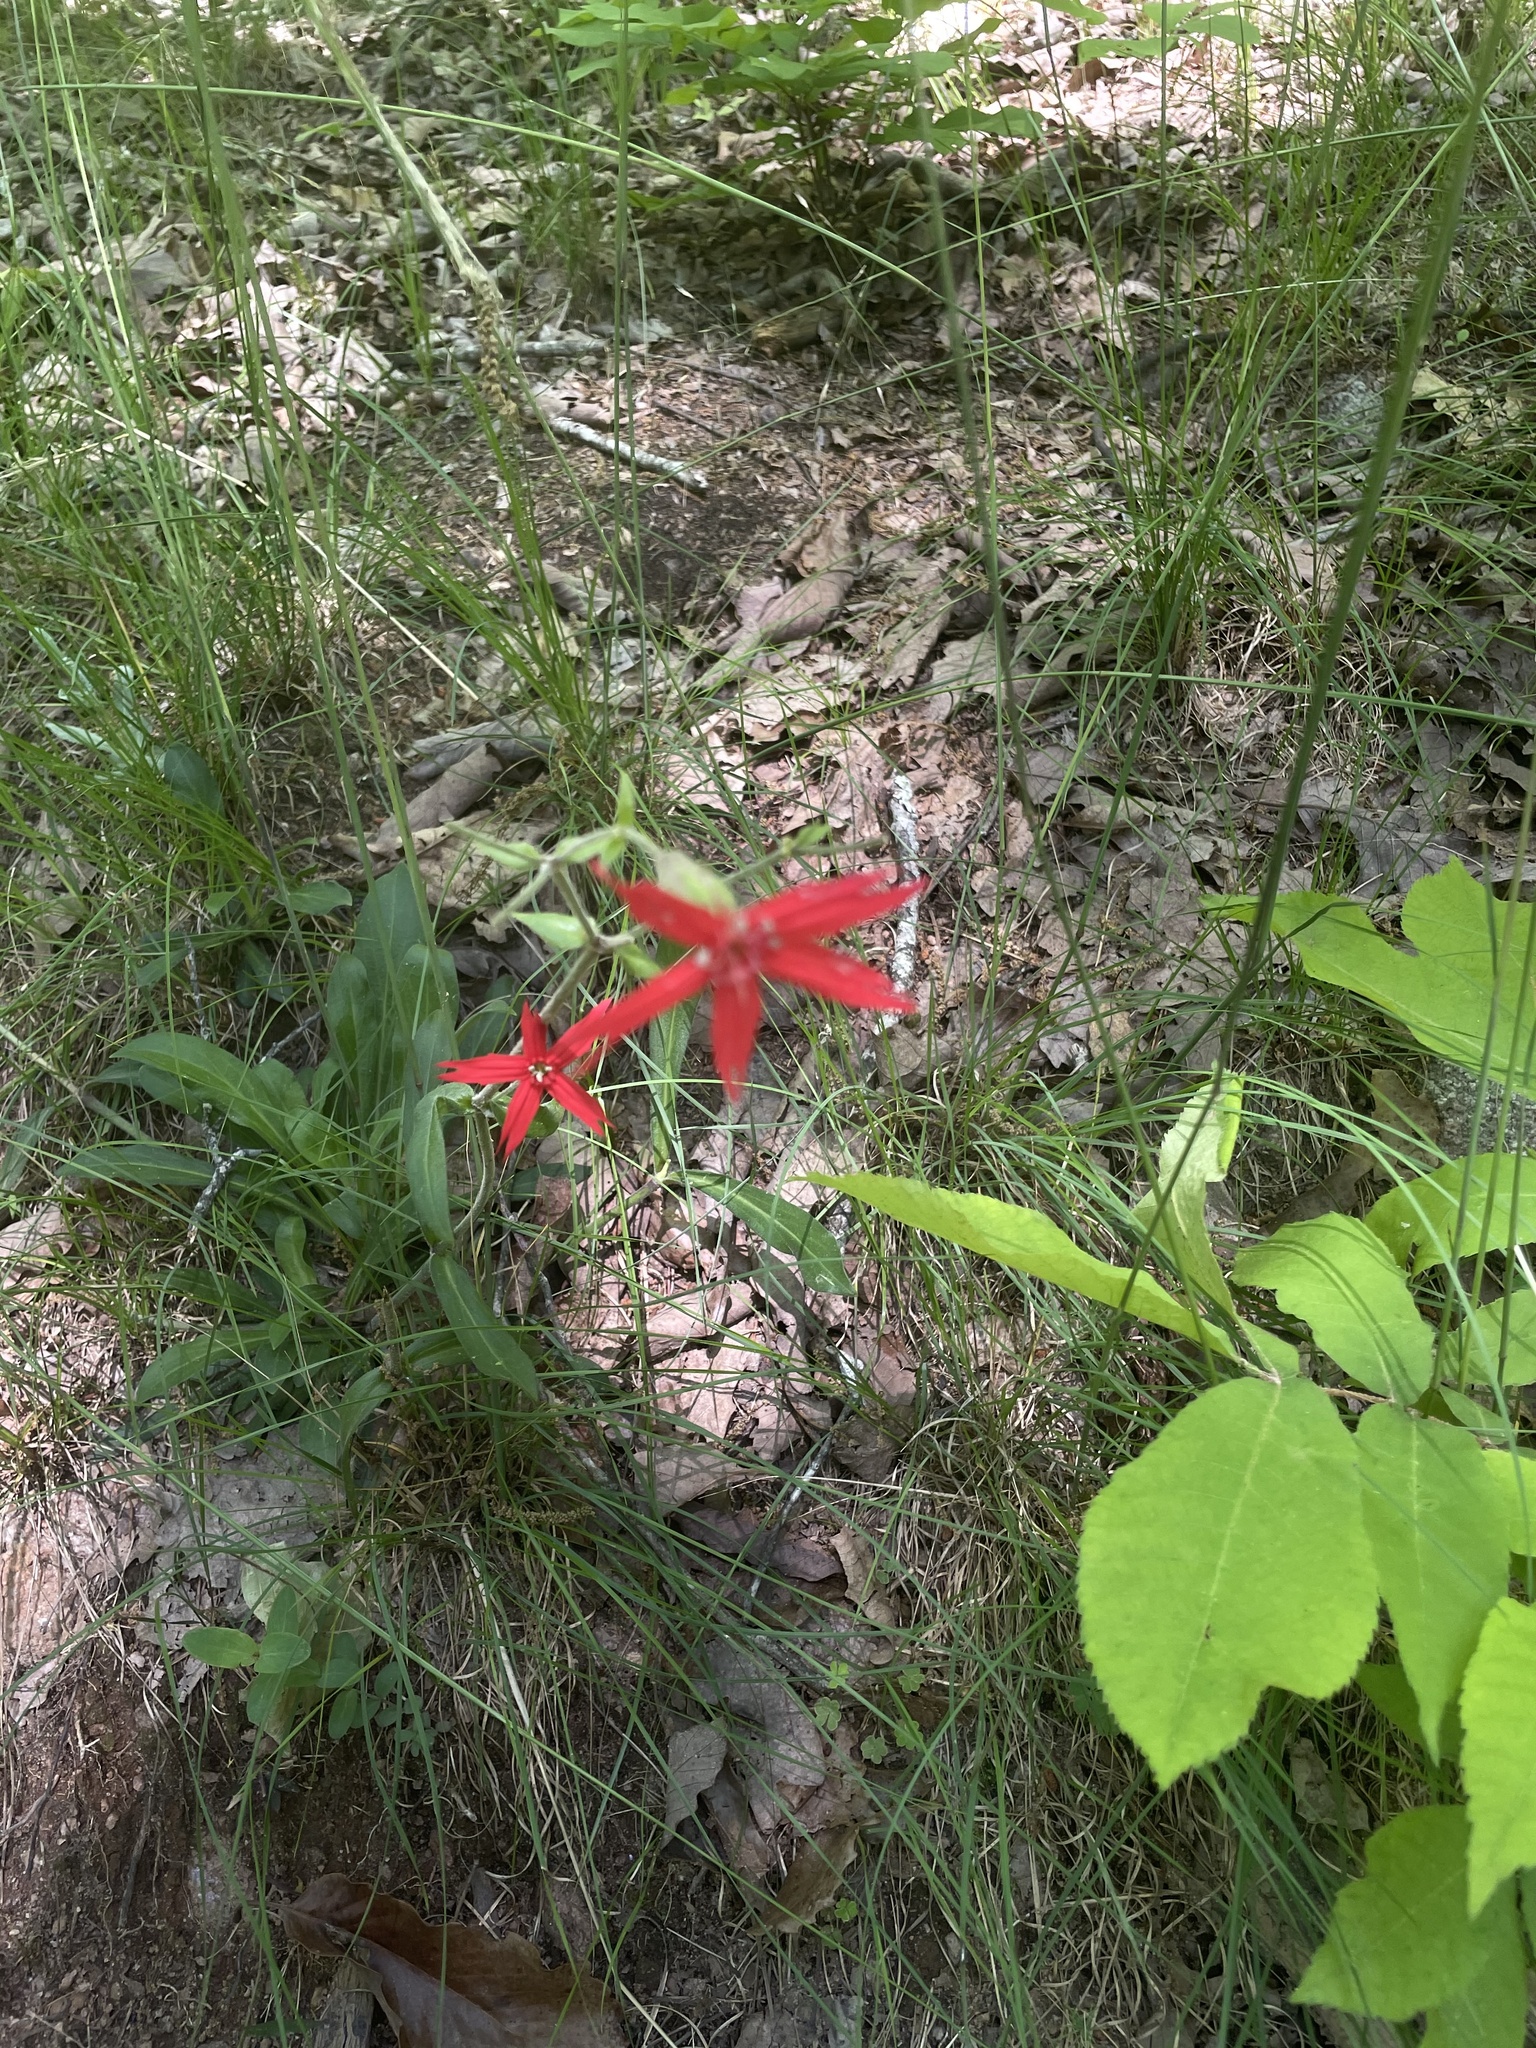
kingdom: Plantae
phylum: Tracheophyta
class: Magnoliopsida
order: Caryophyllales
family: Caryophyllaceae
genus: Silene
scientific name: Silene virginica
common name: Fire-pink
